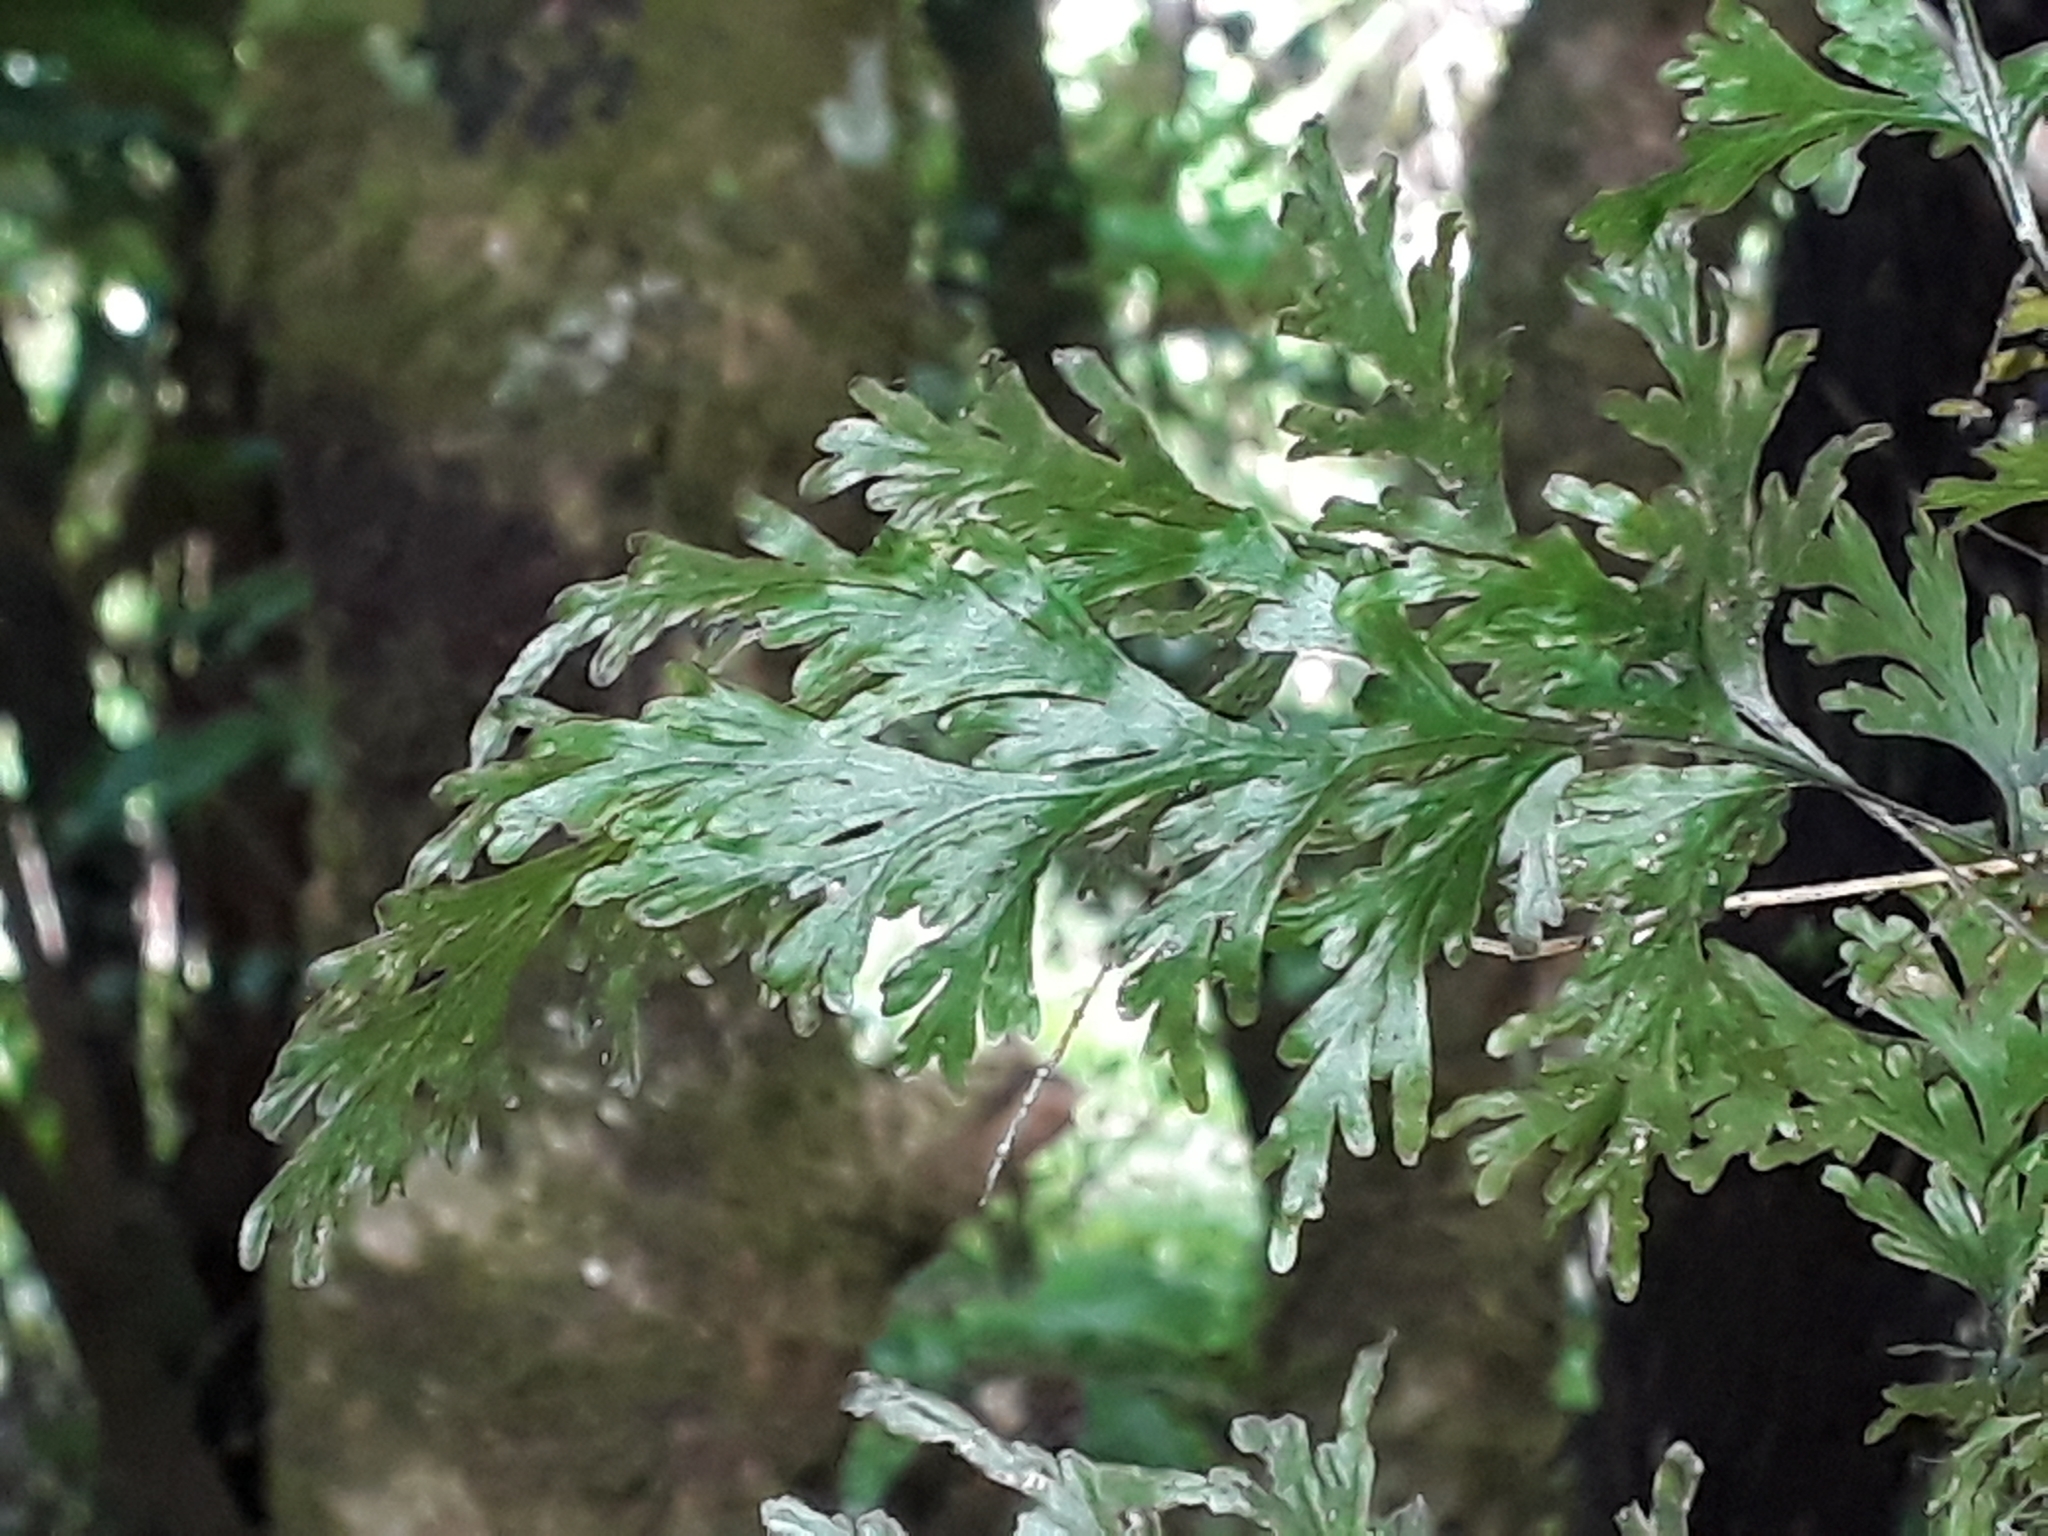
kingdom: Plantae
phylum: Tracheophyta
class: Polypodiopsida
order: Hymenophyllales
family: Hymenophyllaceae
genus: Hymenophyllum
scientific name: Hymenophyllum dilatatum
